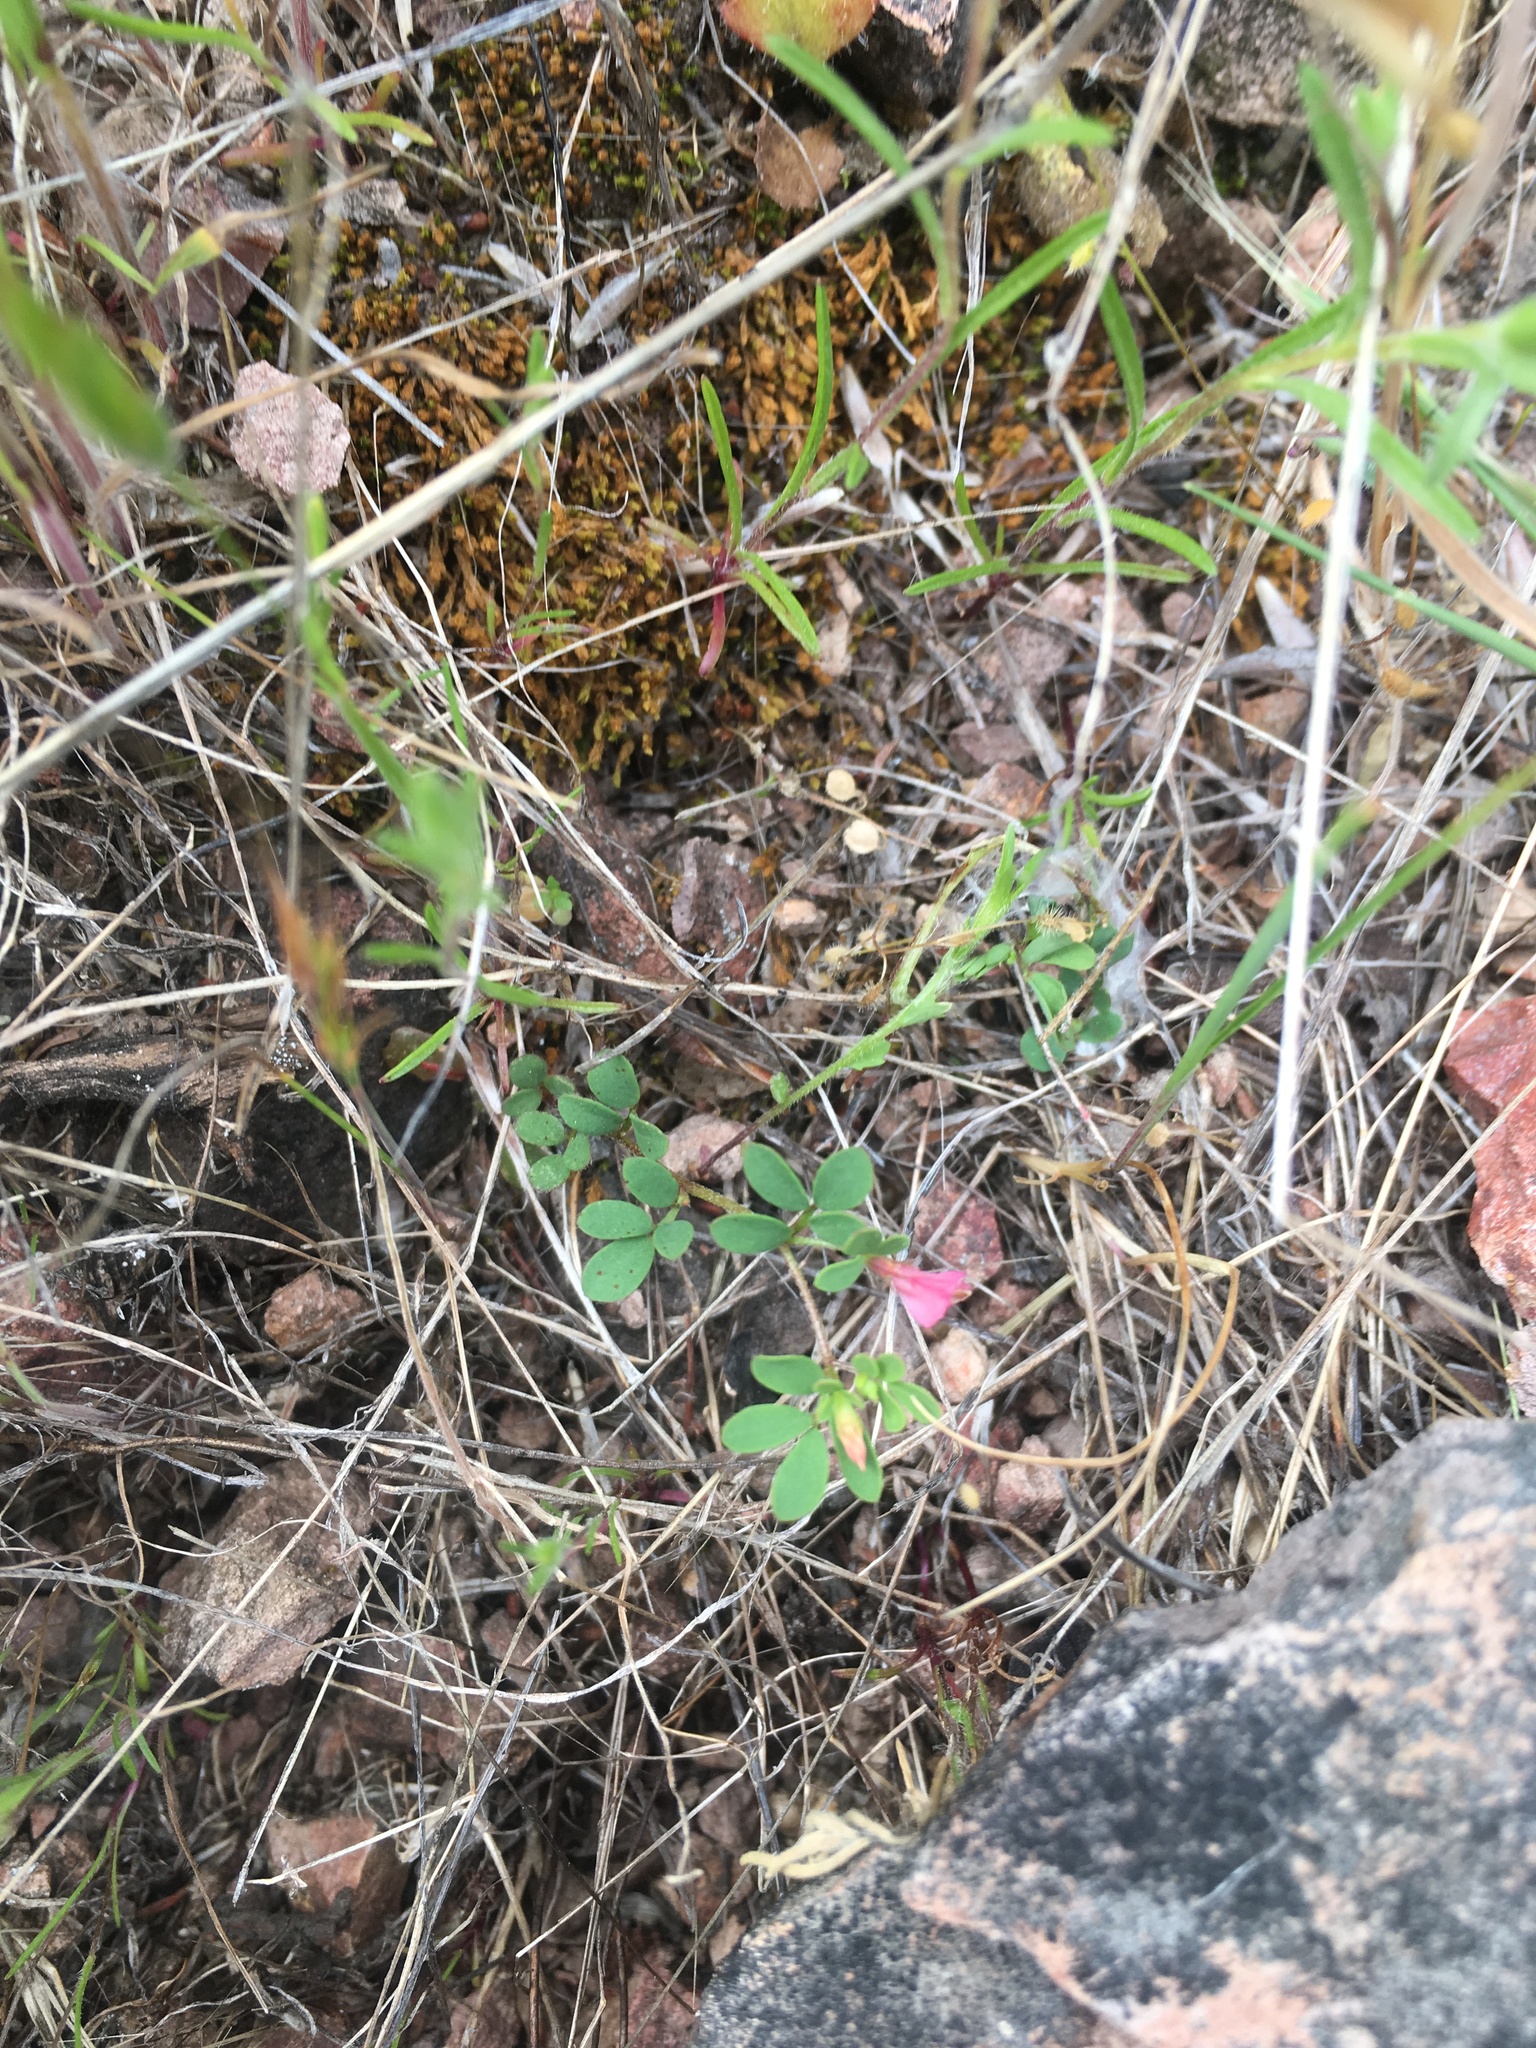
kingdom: Plantae
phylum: Tracheophyta
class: Magnoliopsida
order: Fabales
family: Fabaceae
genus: Acmispon
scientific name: Acmispon parviflorus
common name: Desert deer-vetch
